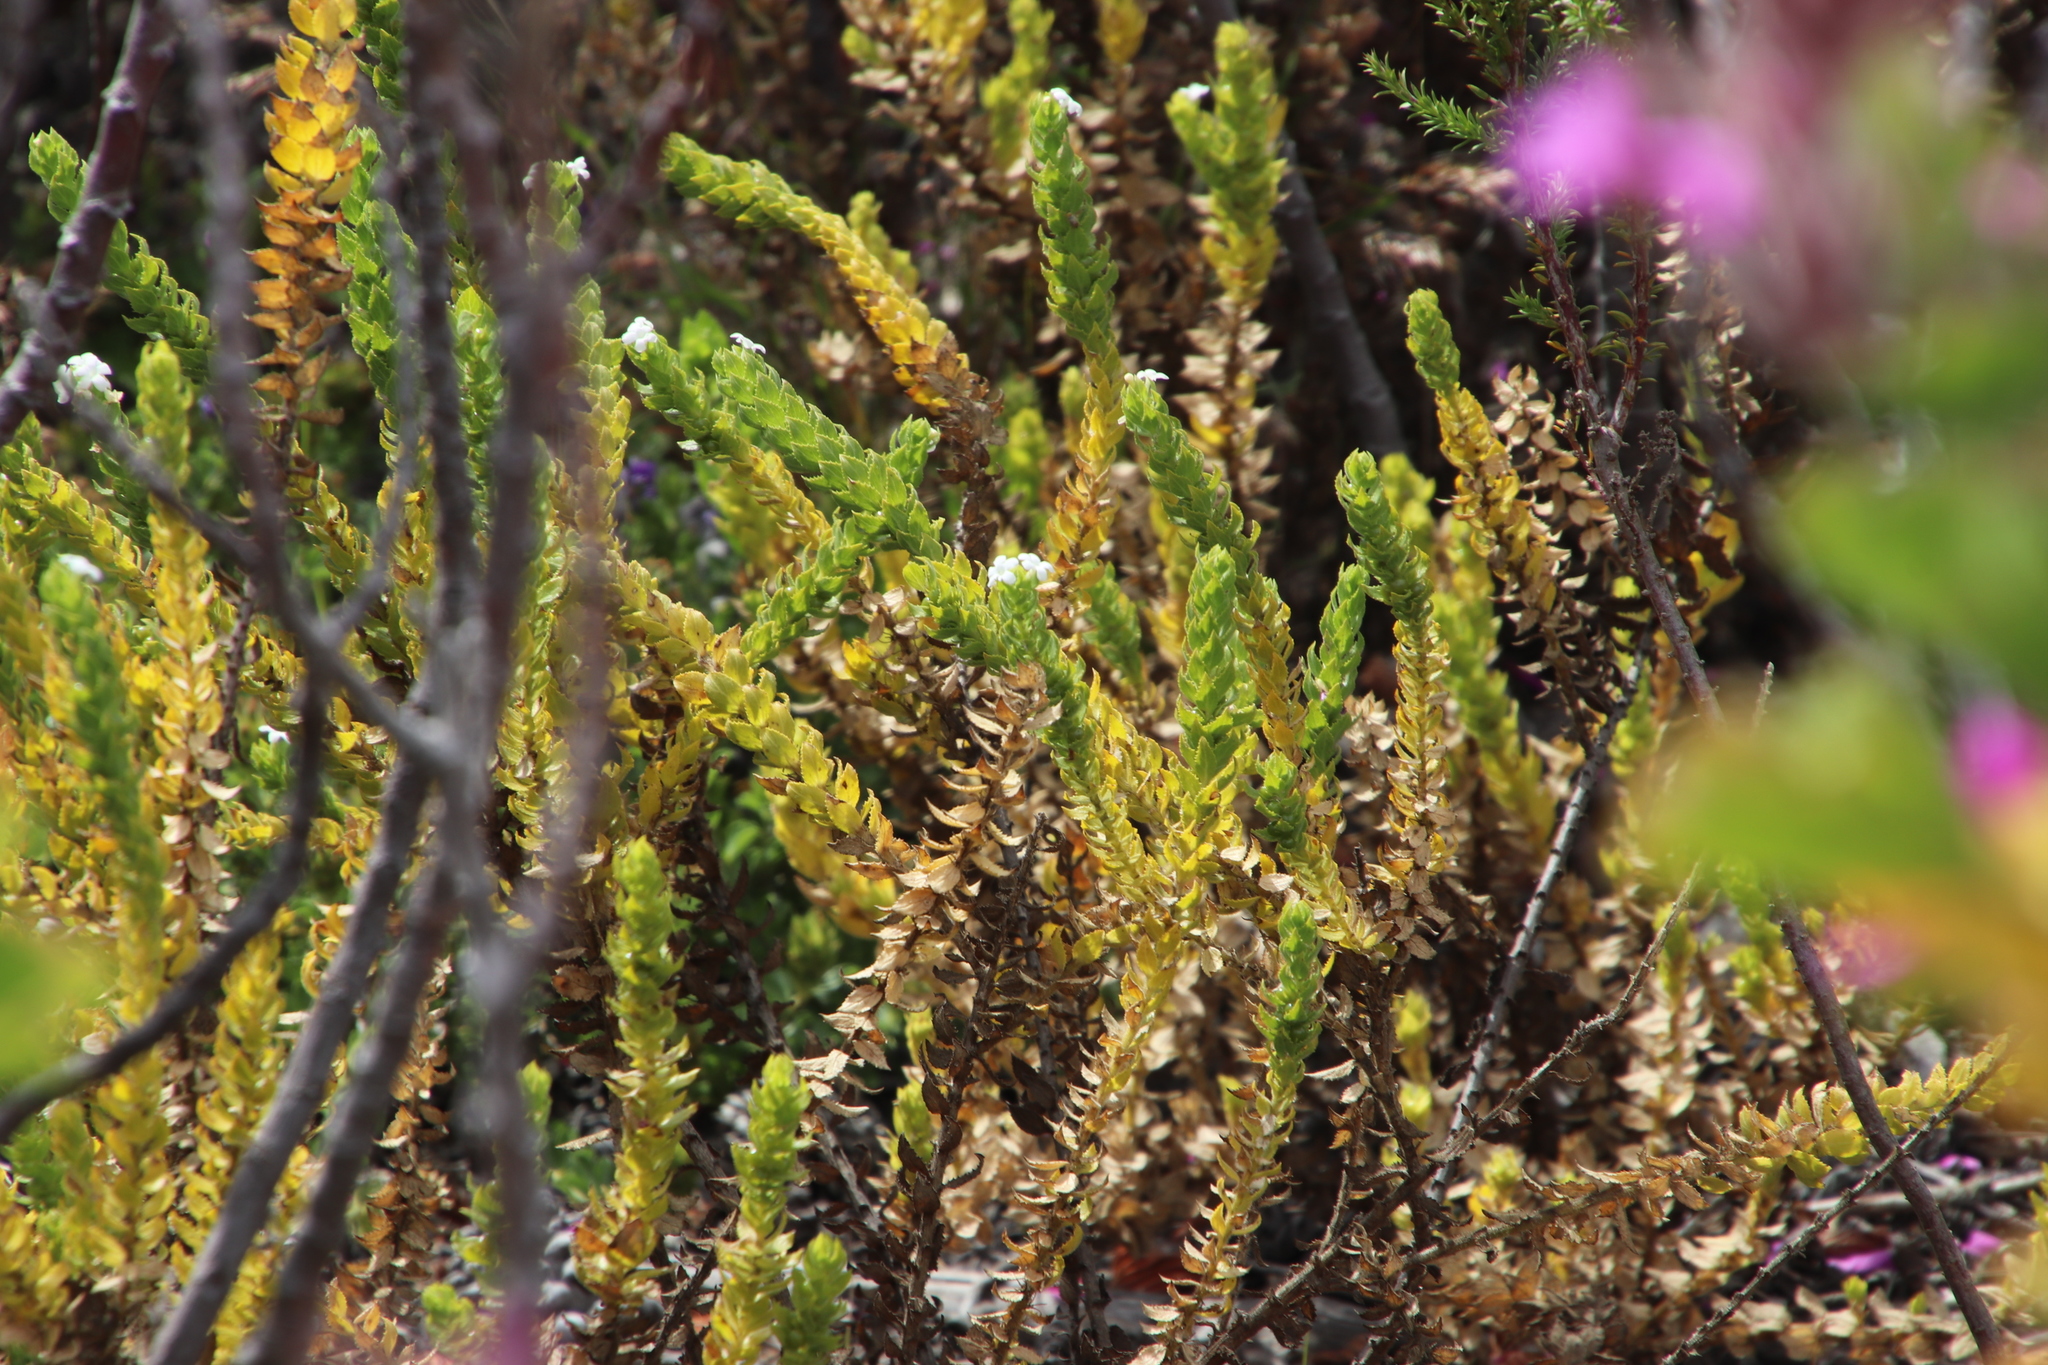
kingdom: Plantae
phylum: Tracheophyta
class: Magnoliopsida
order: Lamiales
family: Scrophulariaceae
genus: Oftia
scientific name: Oftia africana
